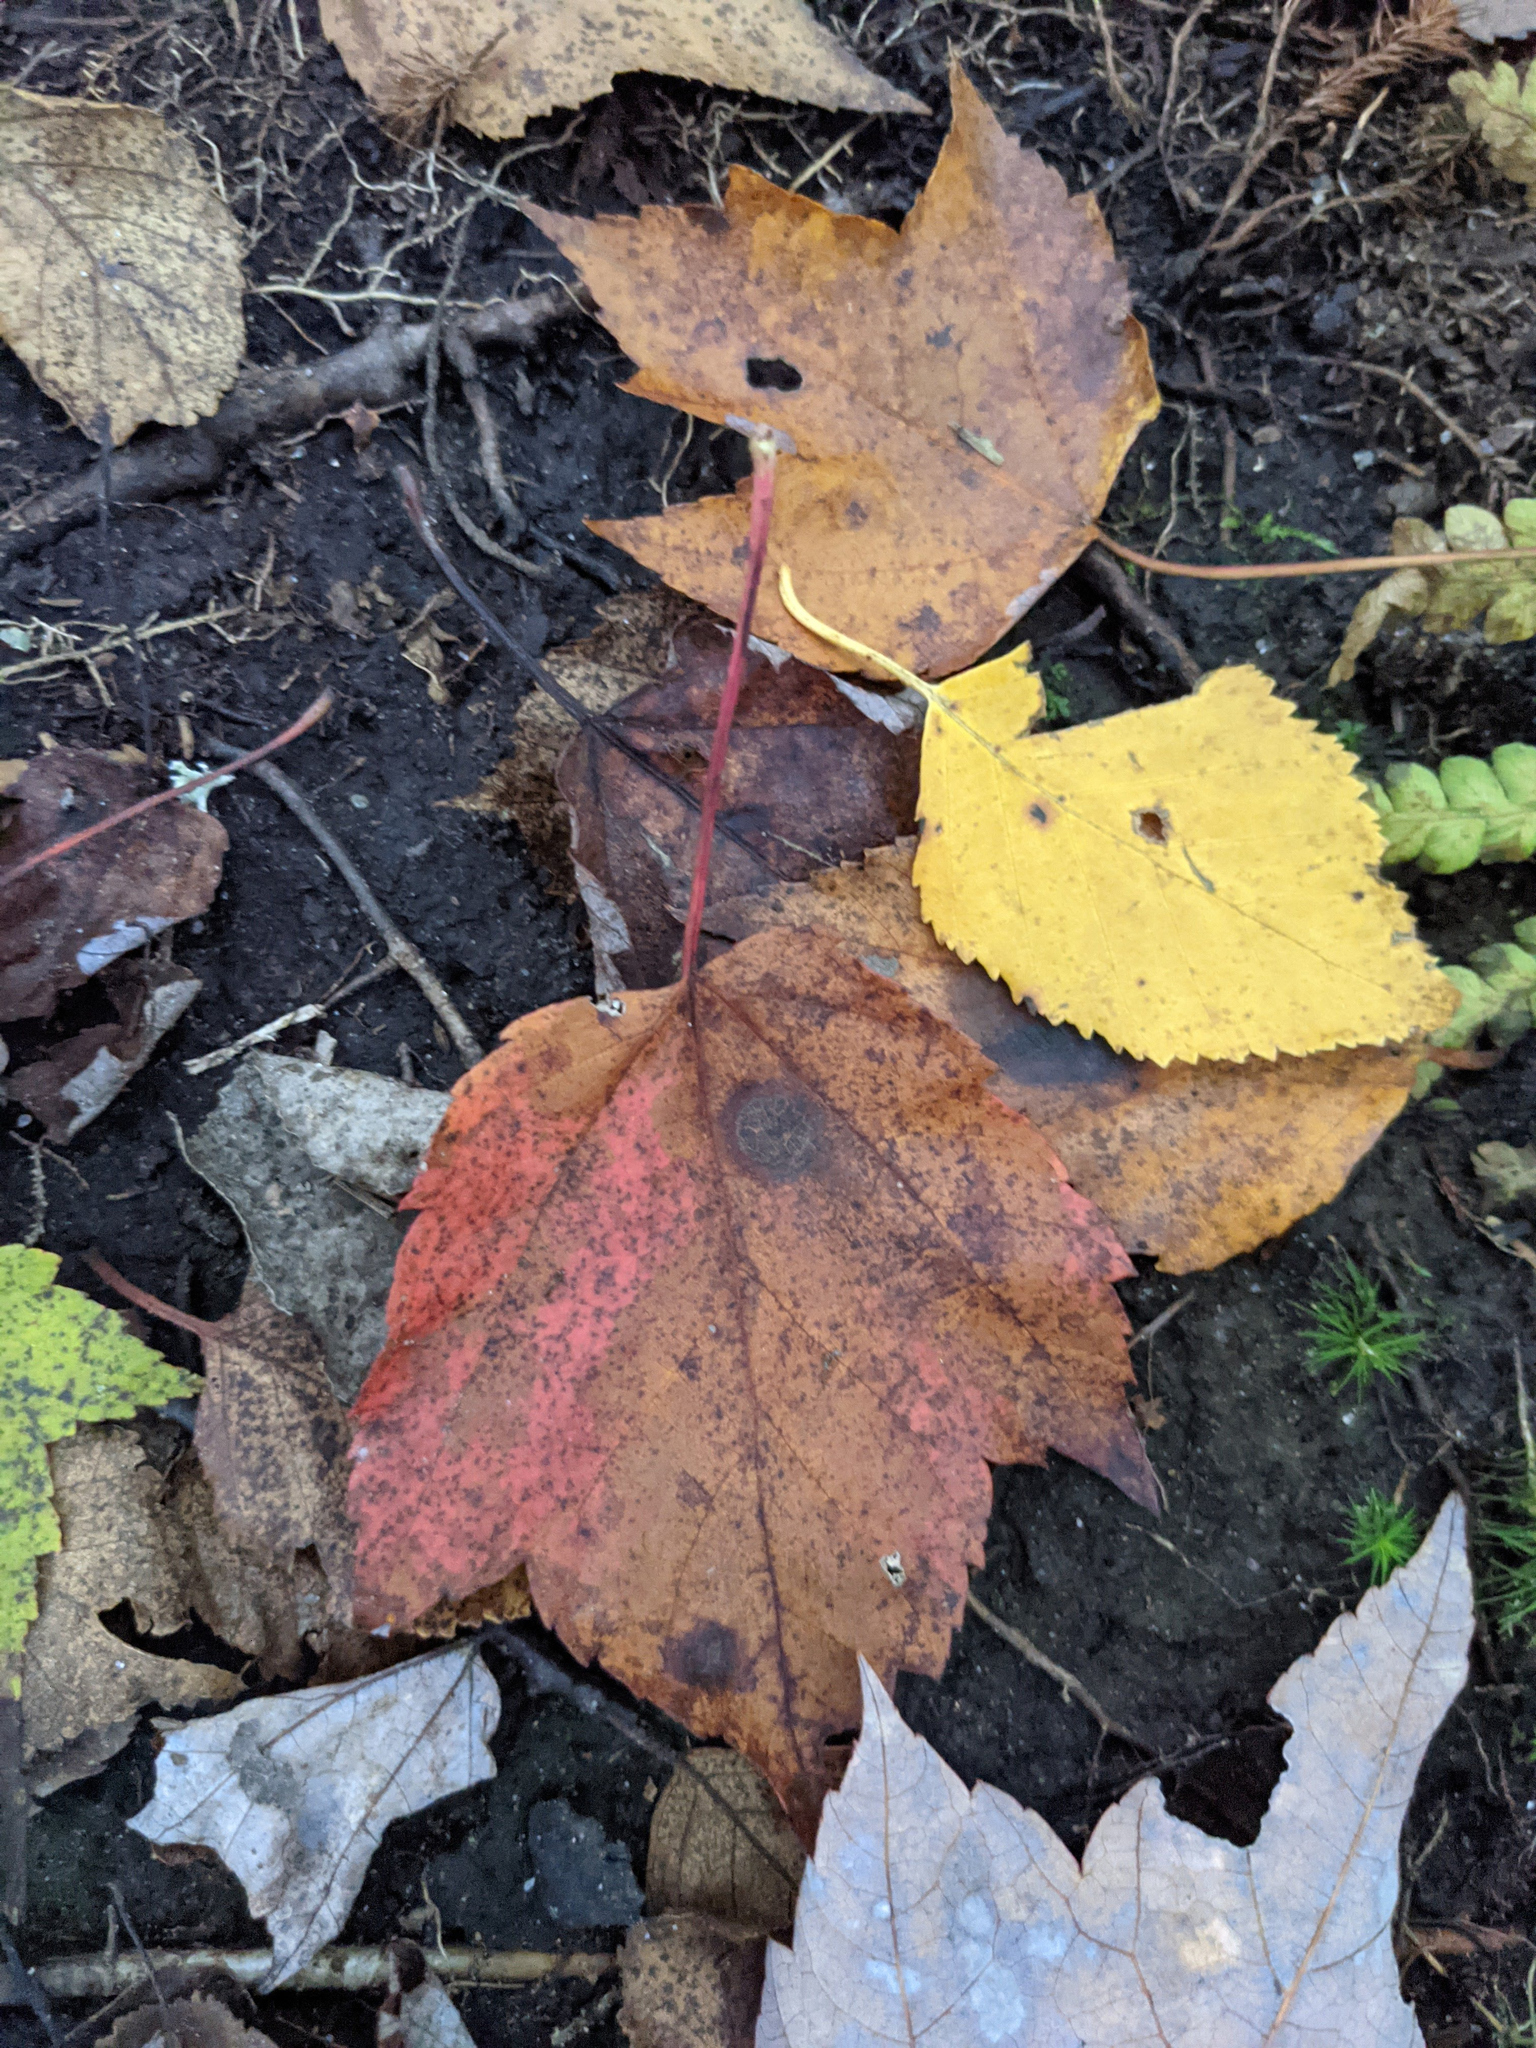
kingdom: Plantae
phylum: Tracheophyta
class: Magnoliopsida
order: Sapindales
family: Sapindaceae
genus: Acer
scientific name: Acer rubrum
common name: Red maple
